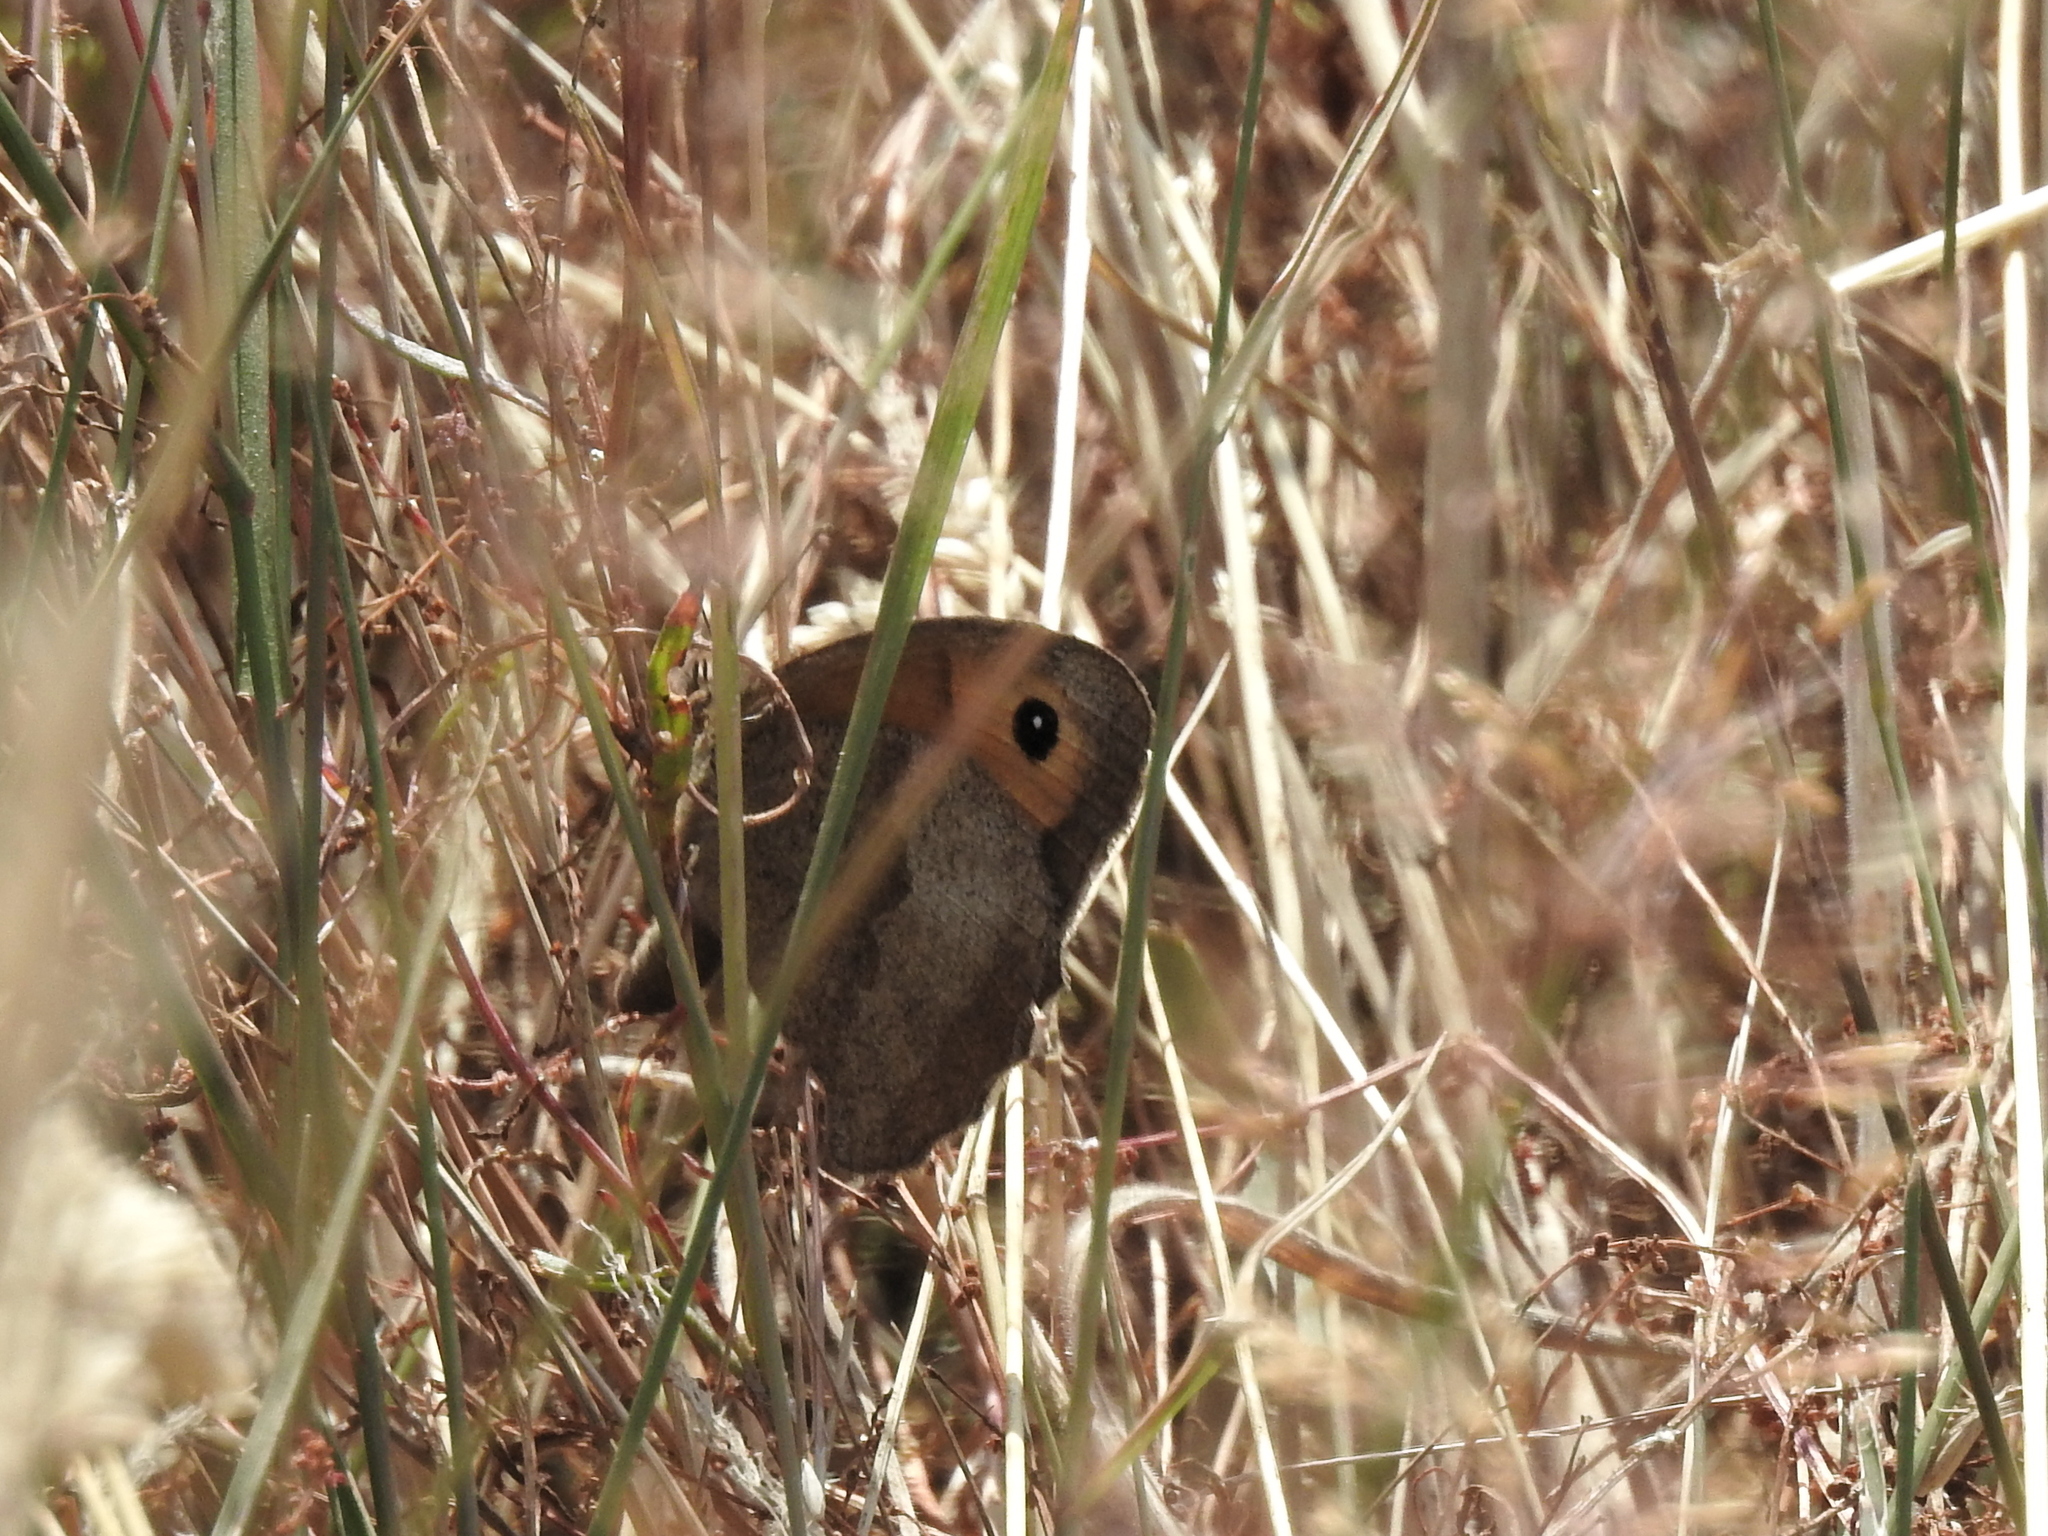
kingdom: Animalia
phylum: Arthropoda
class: Insecta
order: Lepidoptera
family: Nymphalidae
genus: Maniola
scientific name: Maniola jurtina
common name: Meadow brown
